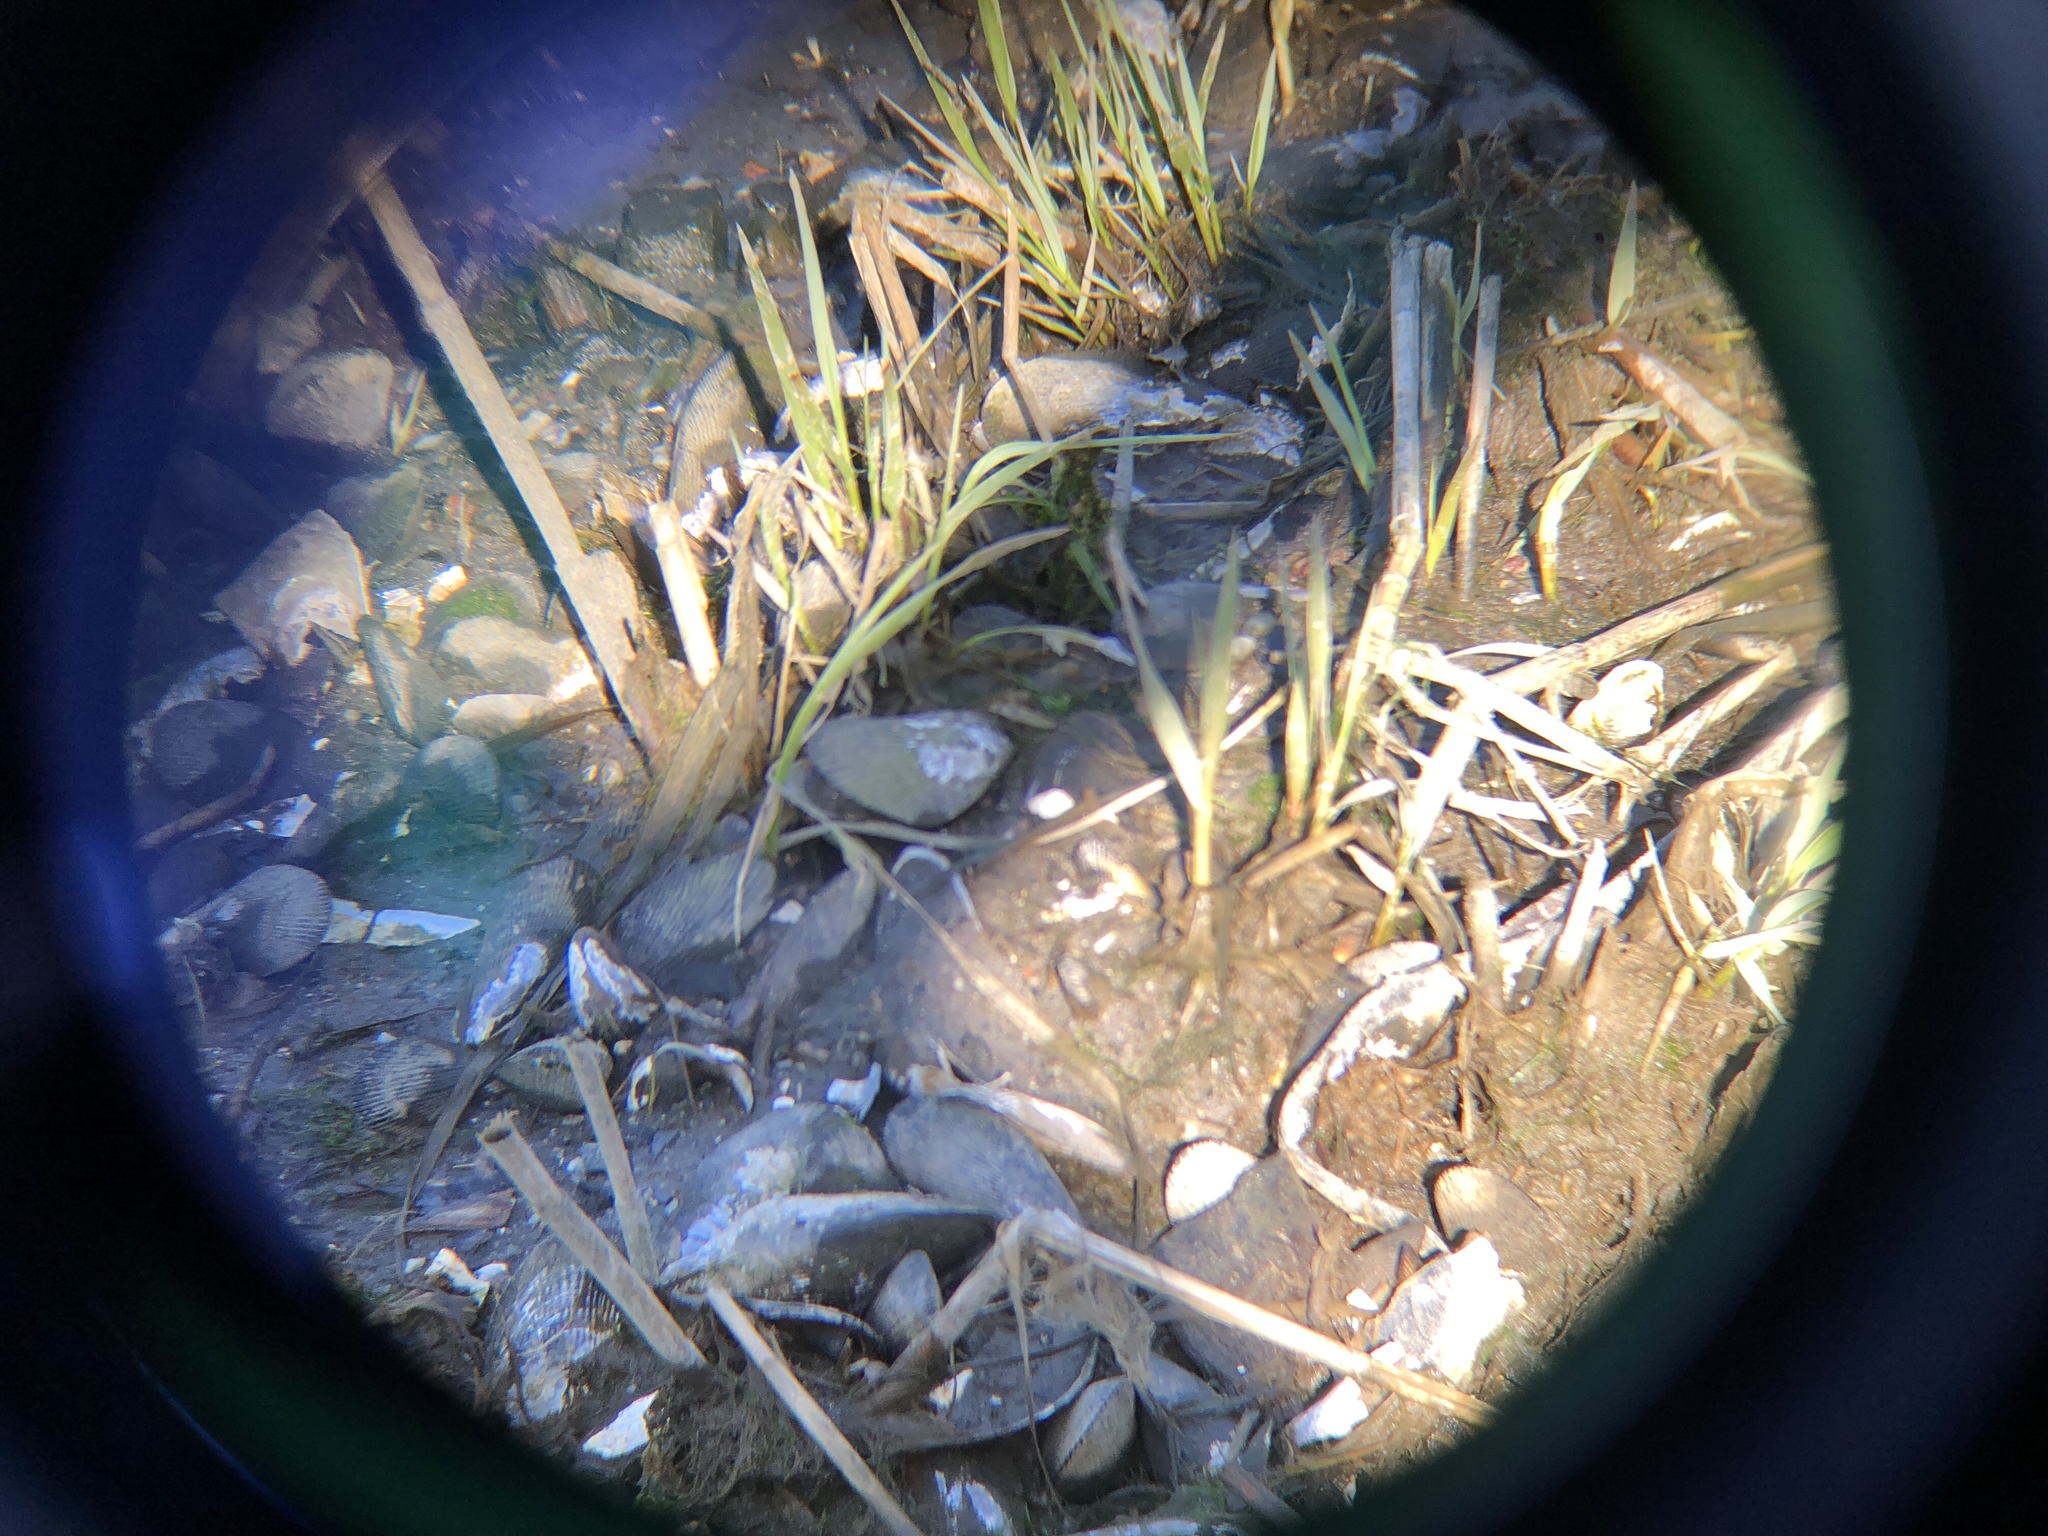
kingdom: Animalia
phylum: Mollusca
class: Bivalvia
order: Mytilida
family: Mytilidae
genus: Geukensia
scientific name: Geukensia demissa
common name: Ribbed mussel
